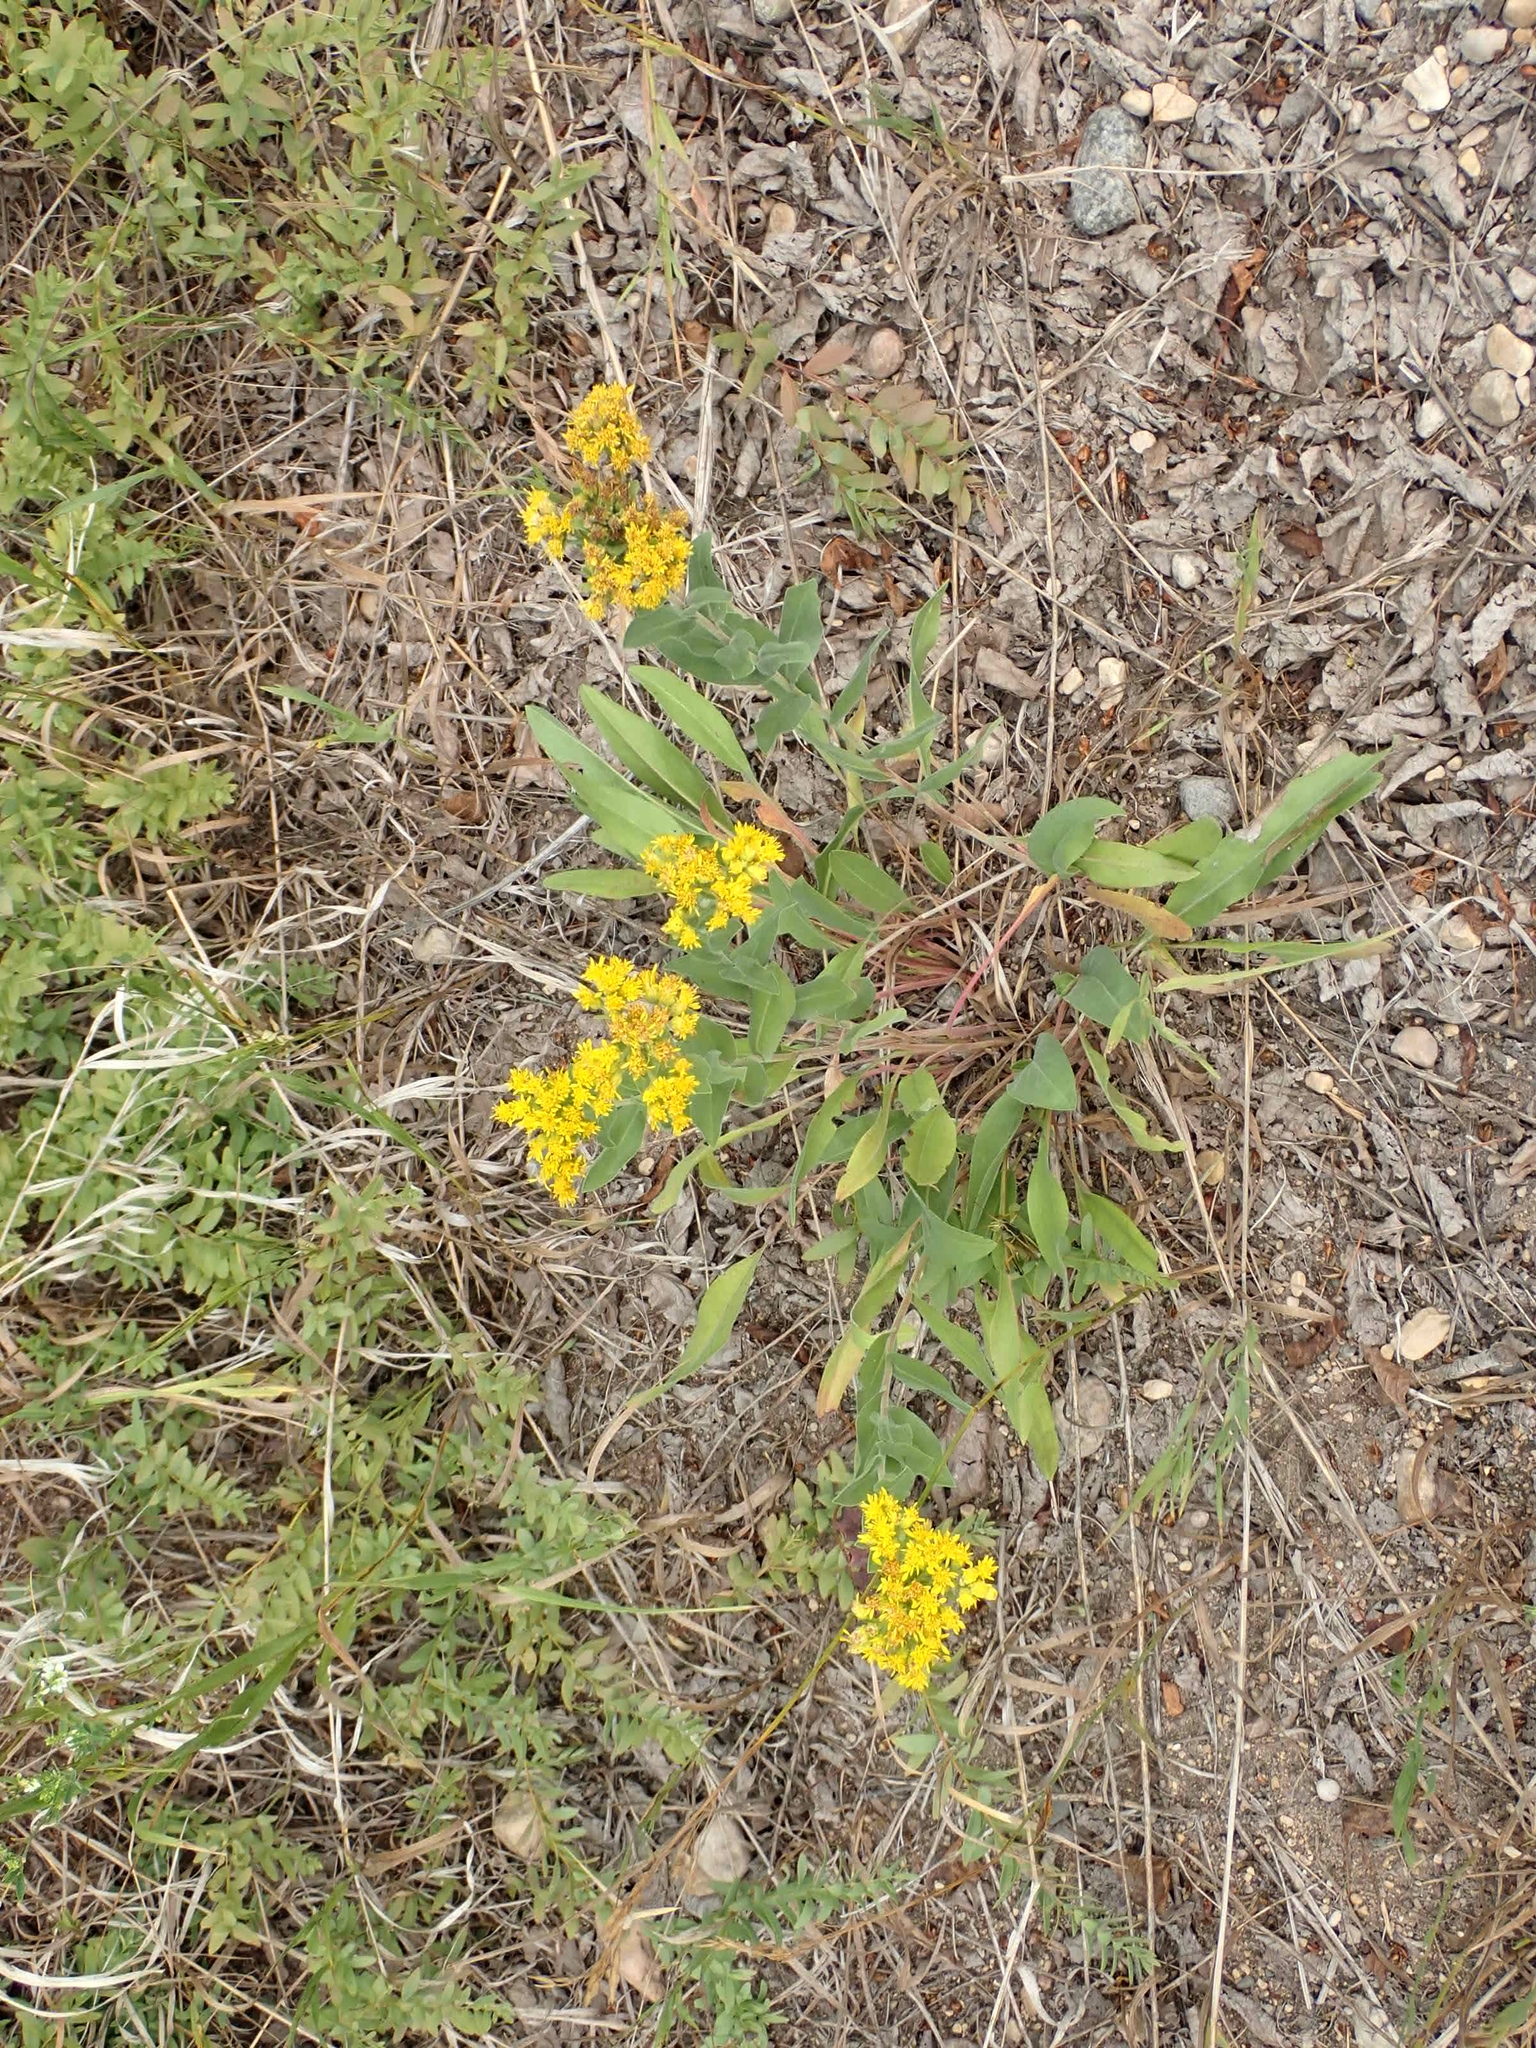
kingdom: Plantae
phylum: Tracheophyta
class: Magnoliopsida
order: Asterales
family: Asteraceae
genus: Solidago
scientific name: Solidago rigida
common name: Rigid goldenrod
